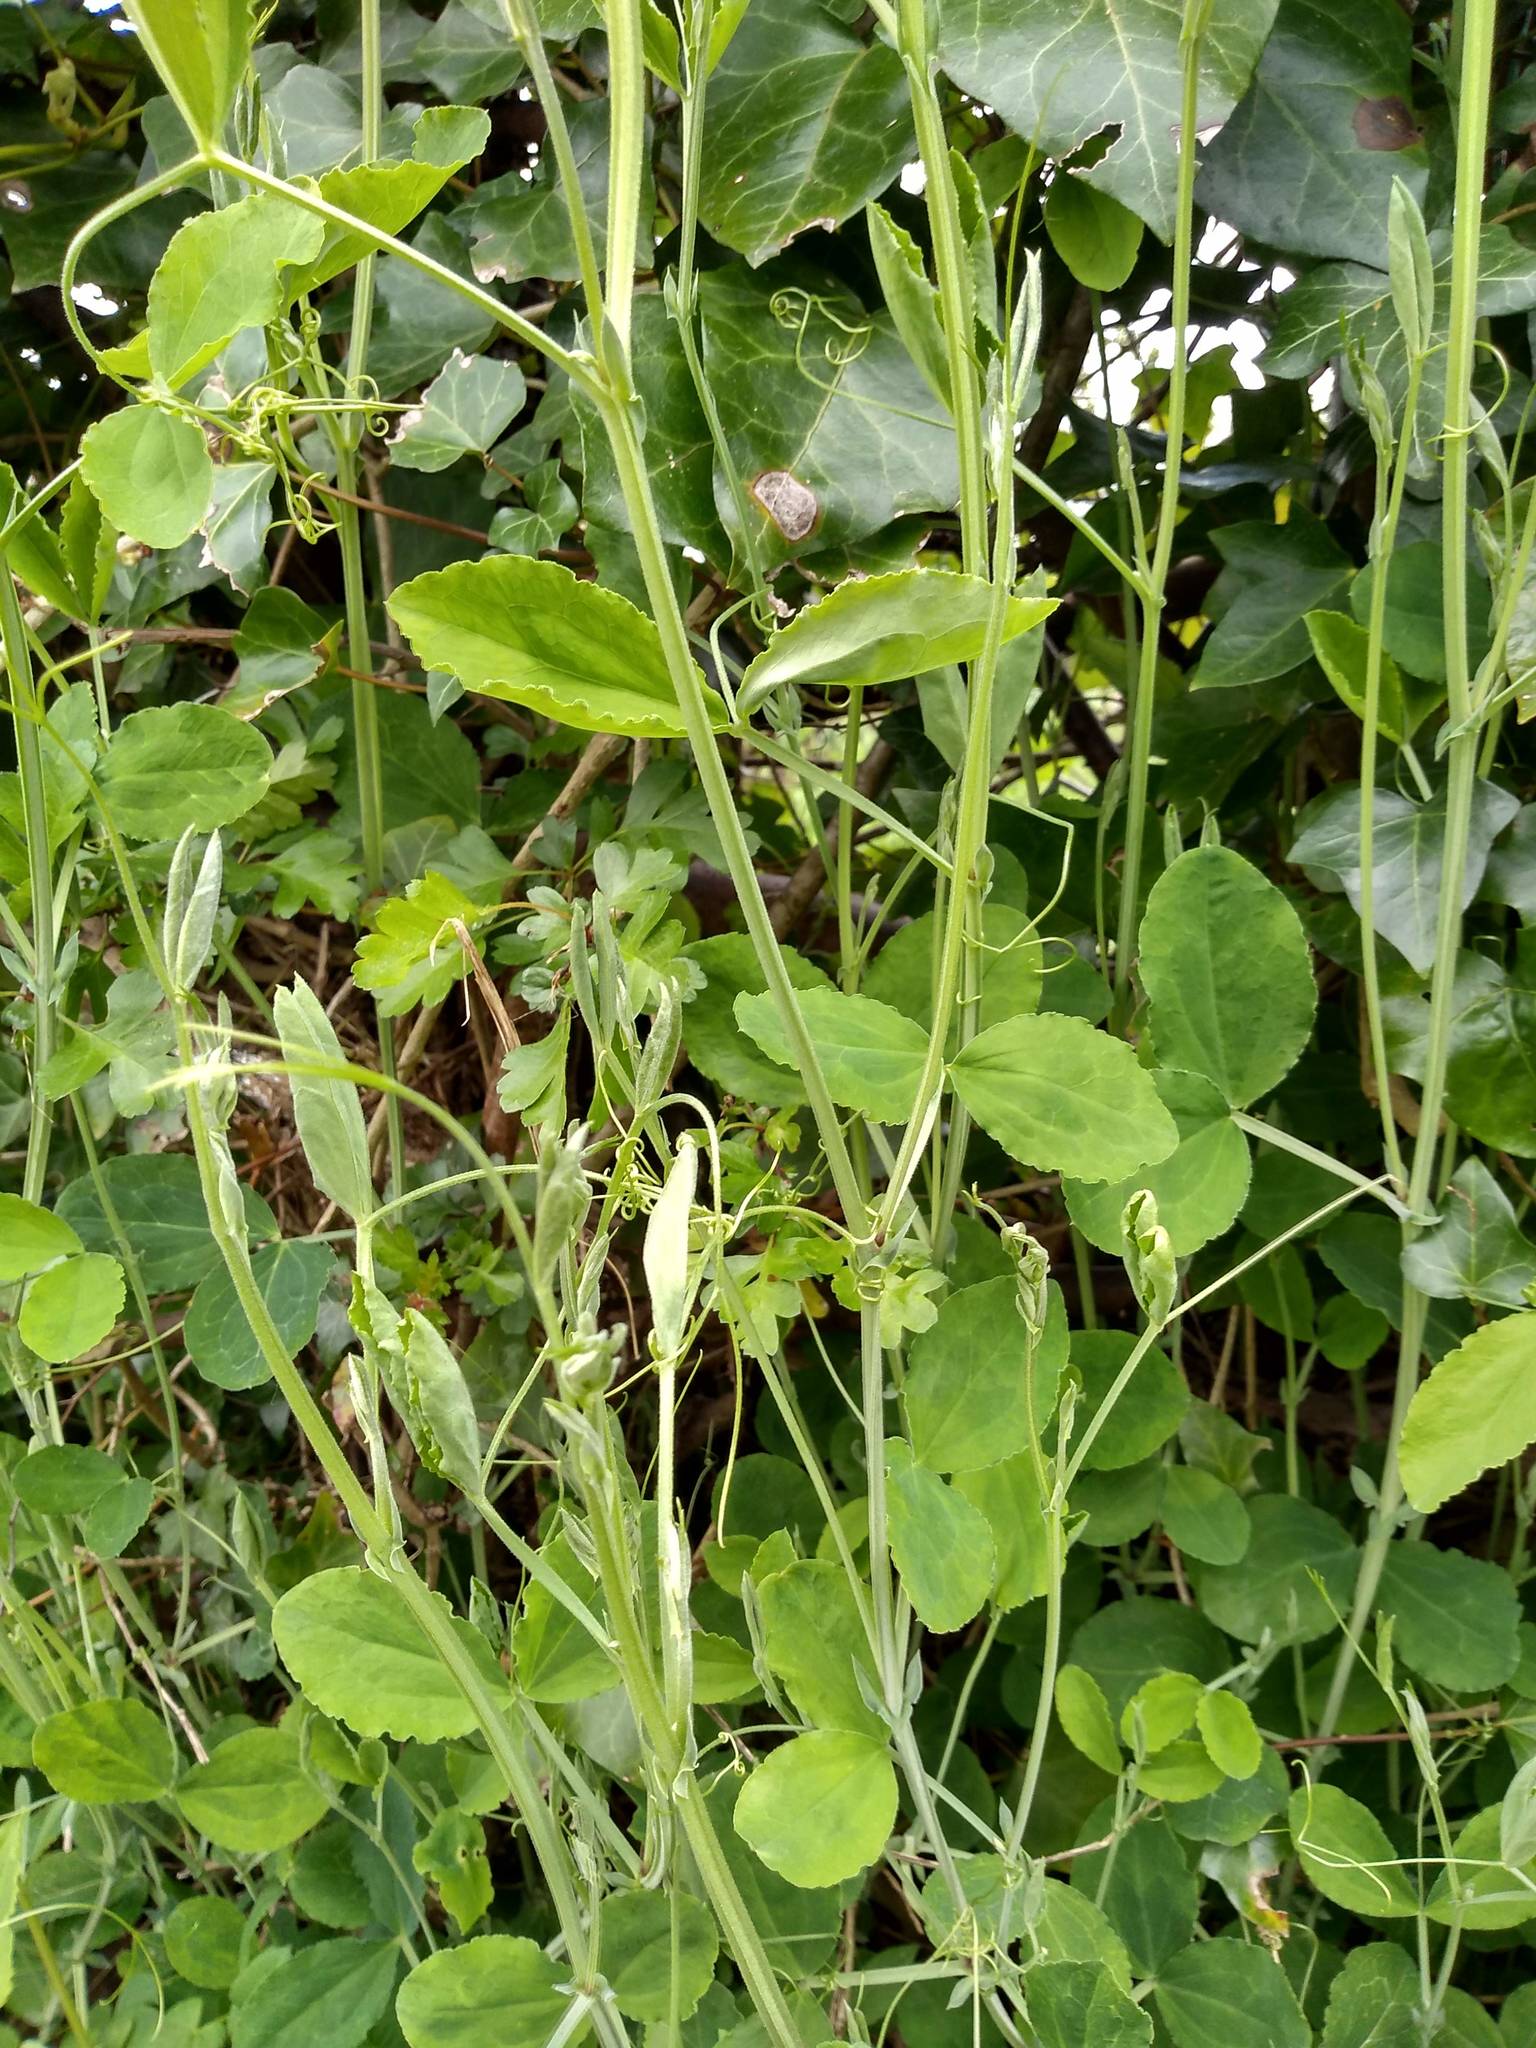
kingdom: Plantae
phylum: Tracheophyta
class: Magnoliopsida
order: Fabales
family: Fabaceae
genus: Lathyrus
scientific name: Lathyrus grandiflorus
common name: Two-flowered everlasting-pea
